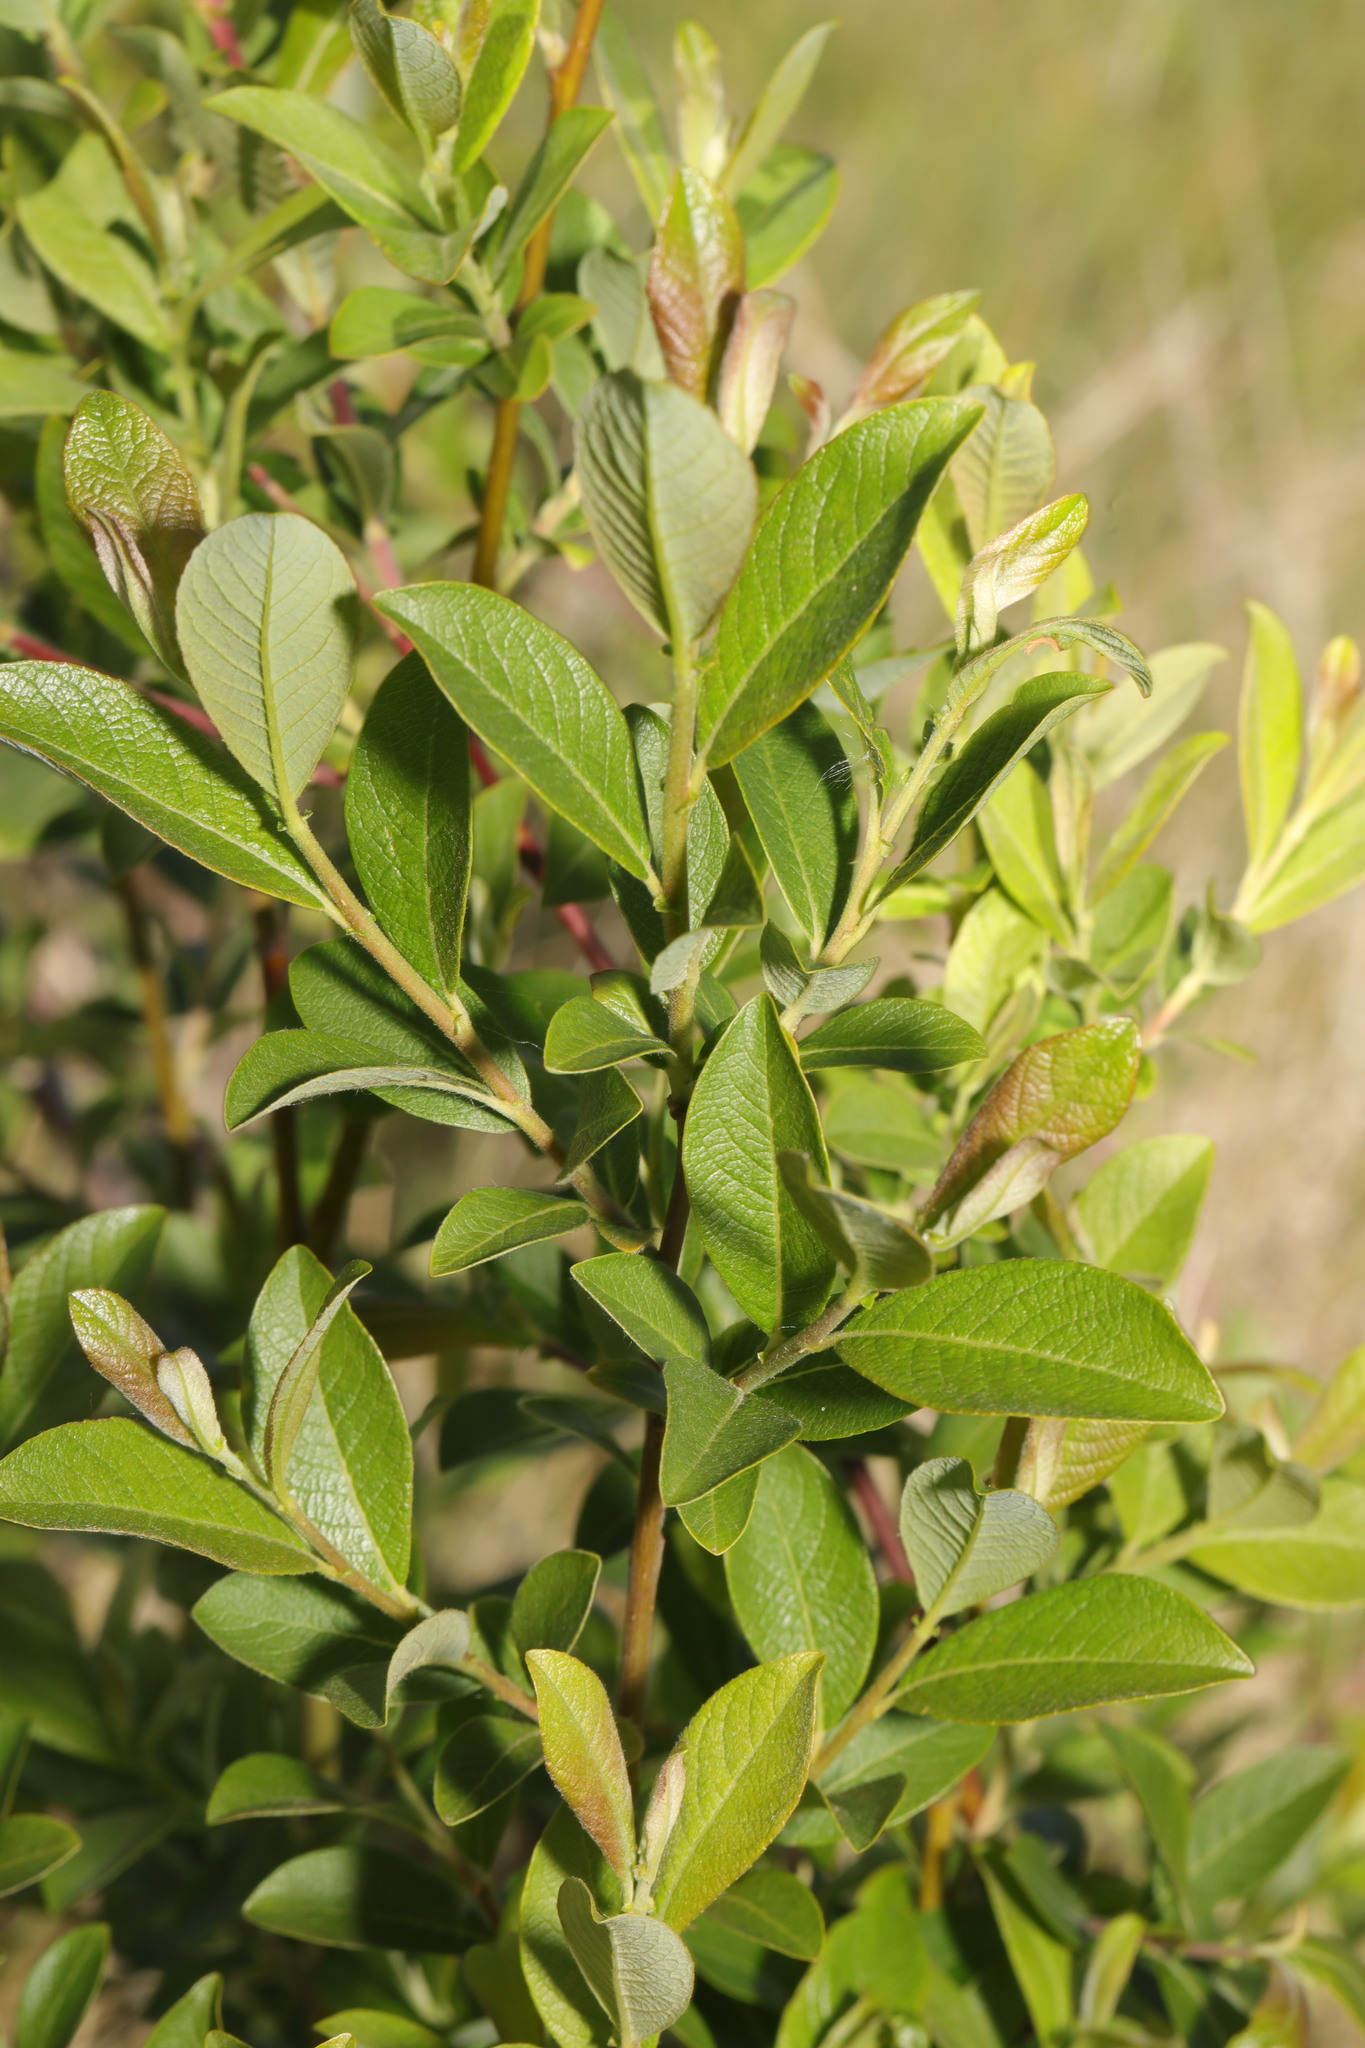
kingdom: Plantae
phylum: Tracheophyta
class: Magnoliopsida
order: Malpighiales
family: Salicaceae
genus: Salix
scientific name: Salix cinerea
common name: Common sallow
